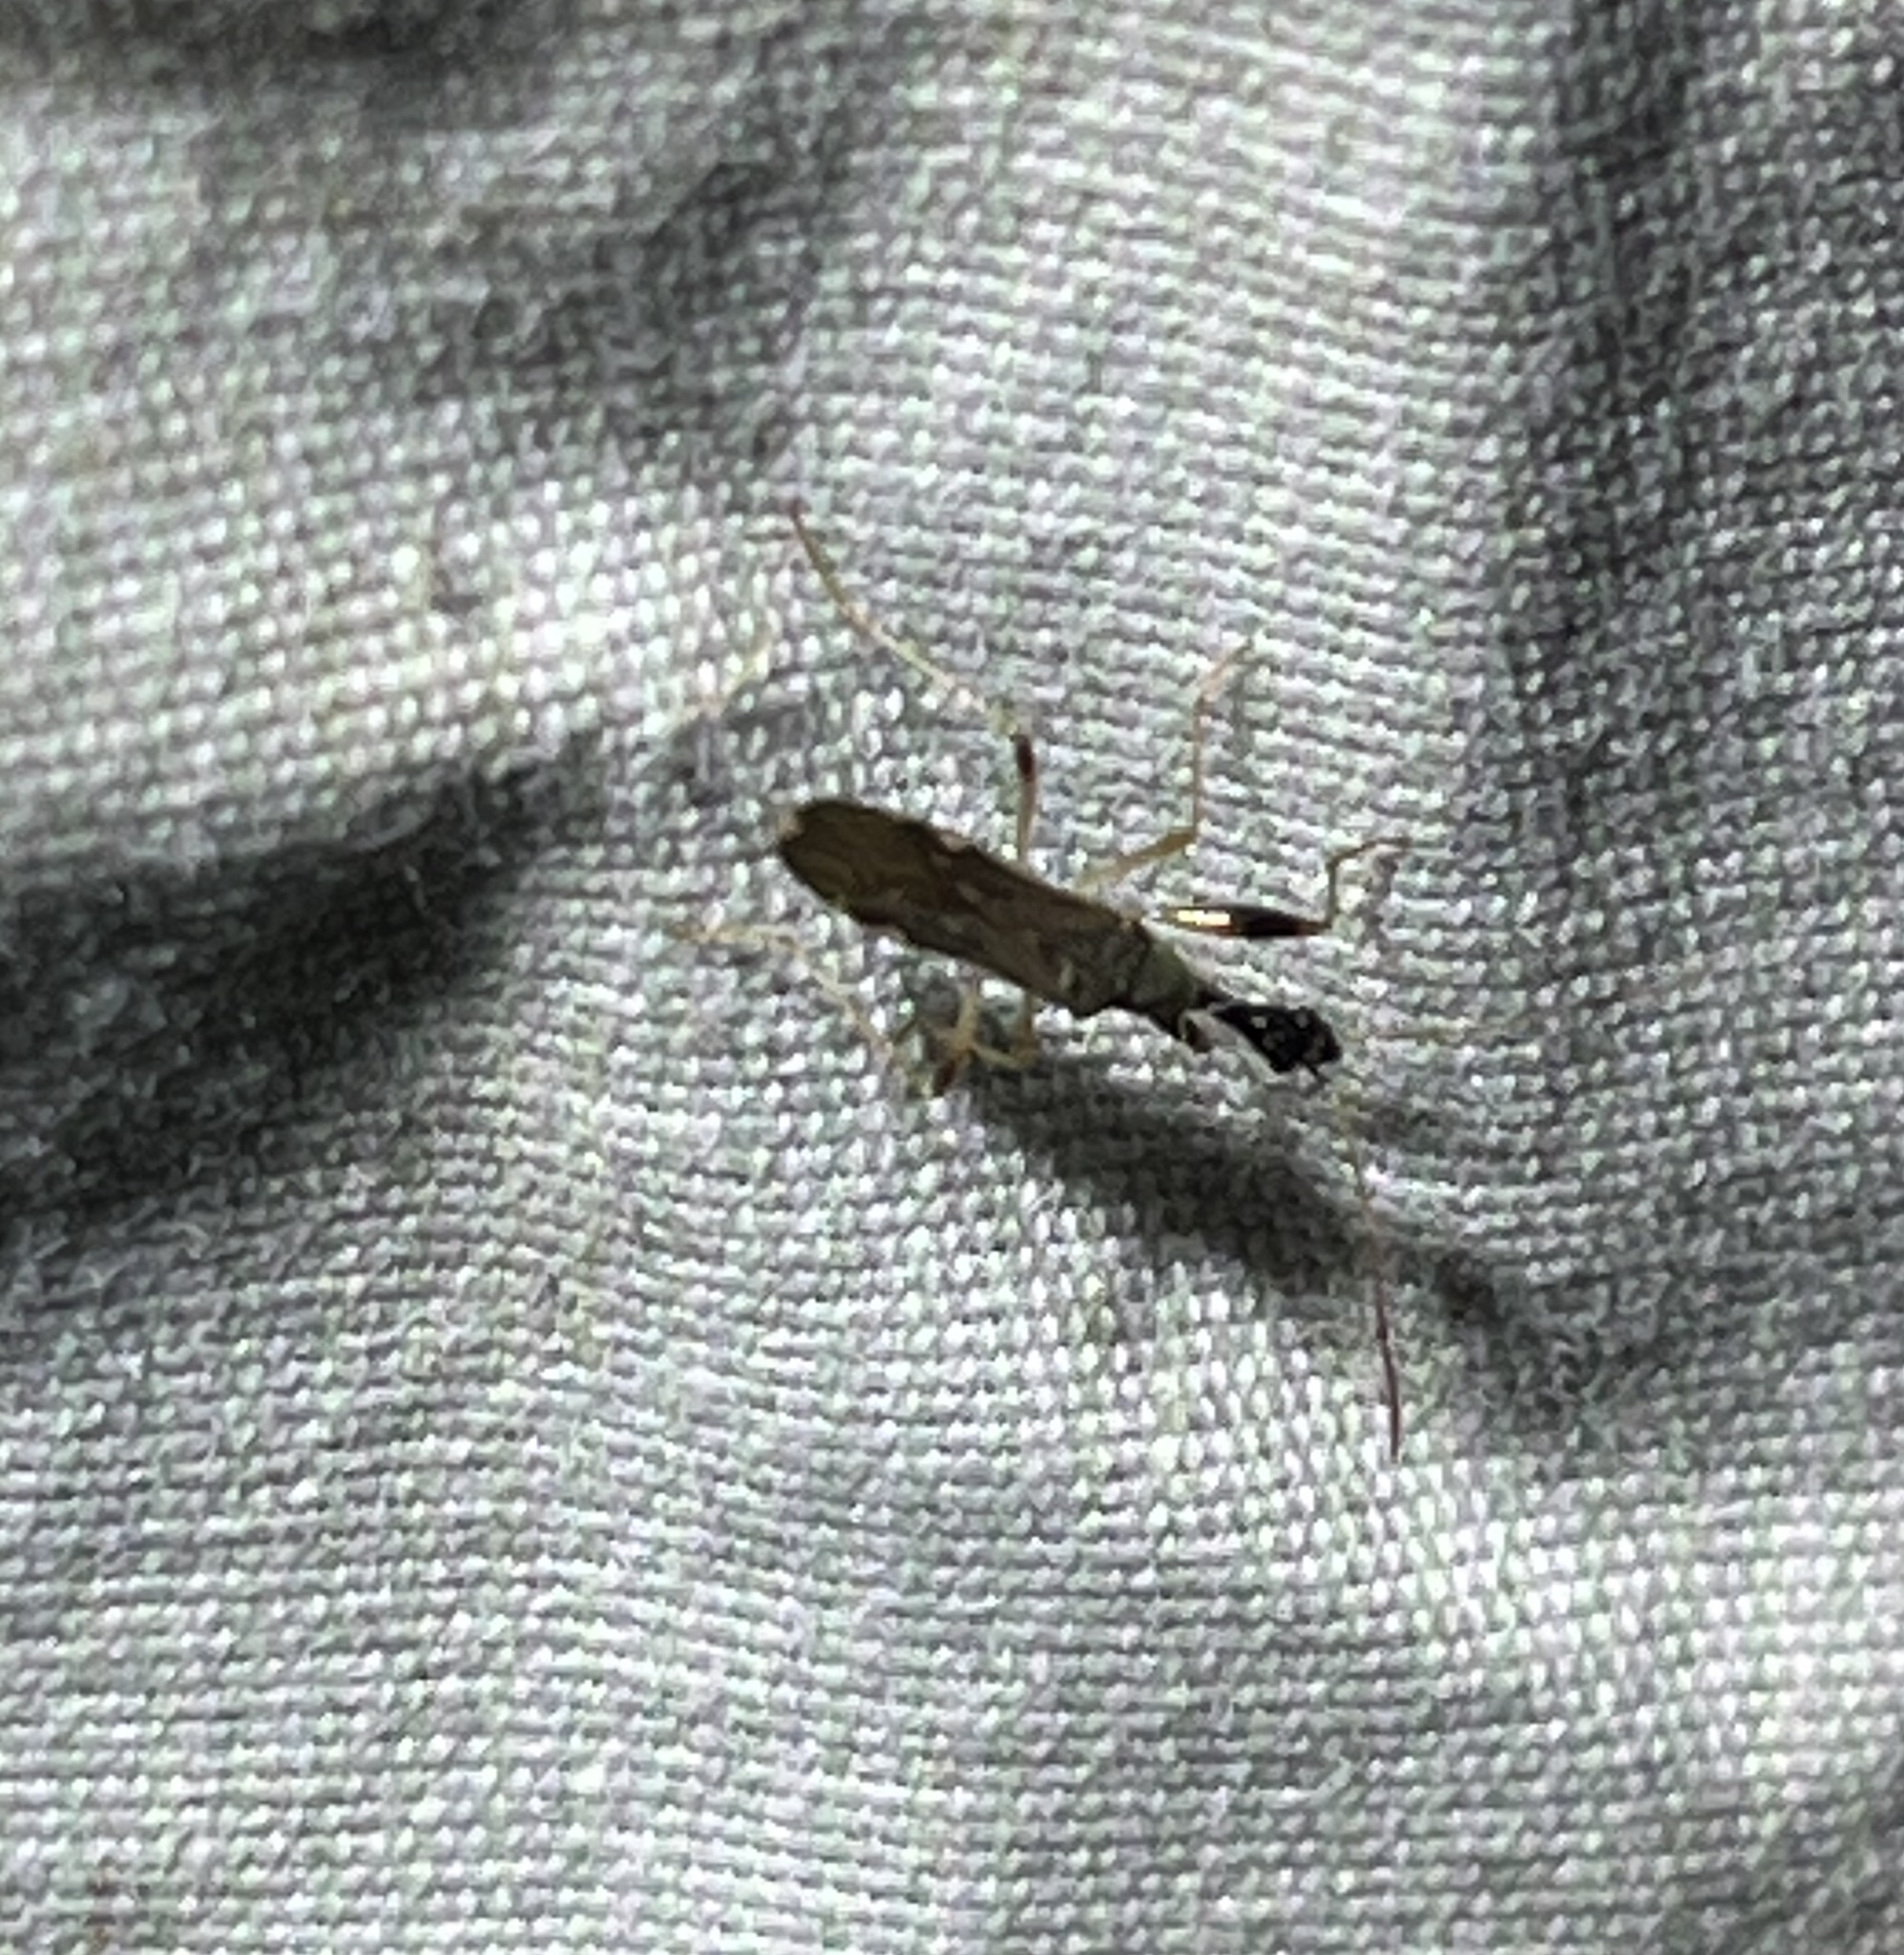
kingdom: Animalia
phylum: Arthropoda
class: Insecta
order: Hemiptera
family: Rhyparochromidae
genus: Myodocha
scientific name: Myodocha serripes
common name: Long-necked seed bug
